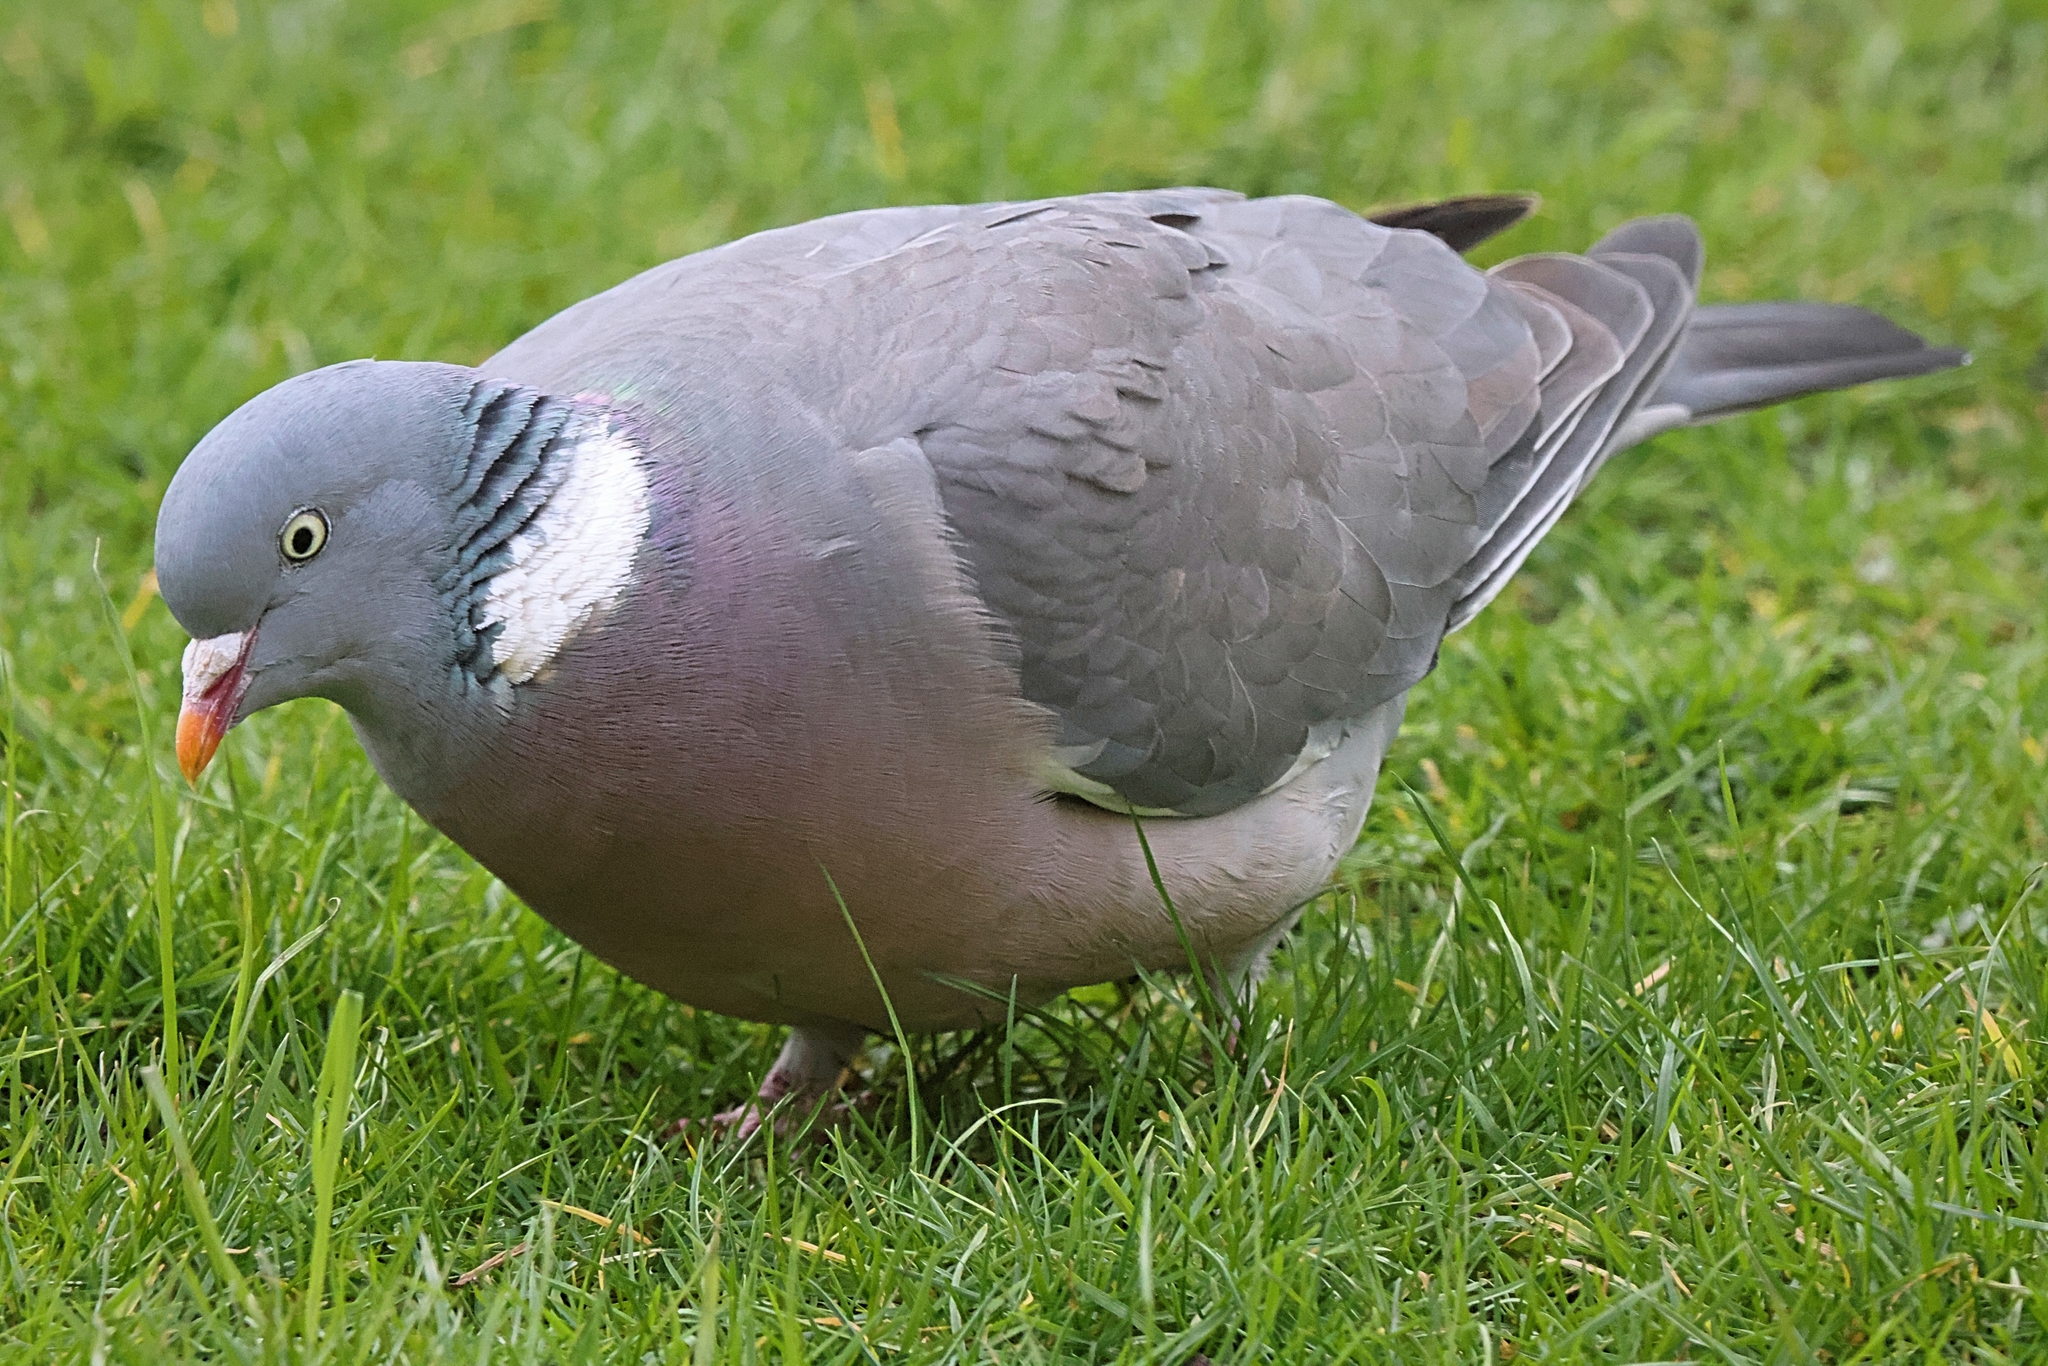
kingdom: Animalia
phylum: Chordata
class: Aves
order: Columbiformes
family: Columbidae
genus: Columba
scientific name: Columba palumbus
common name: Common wood pigeon
